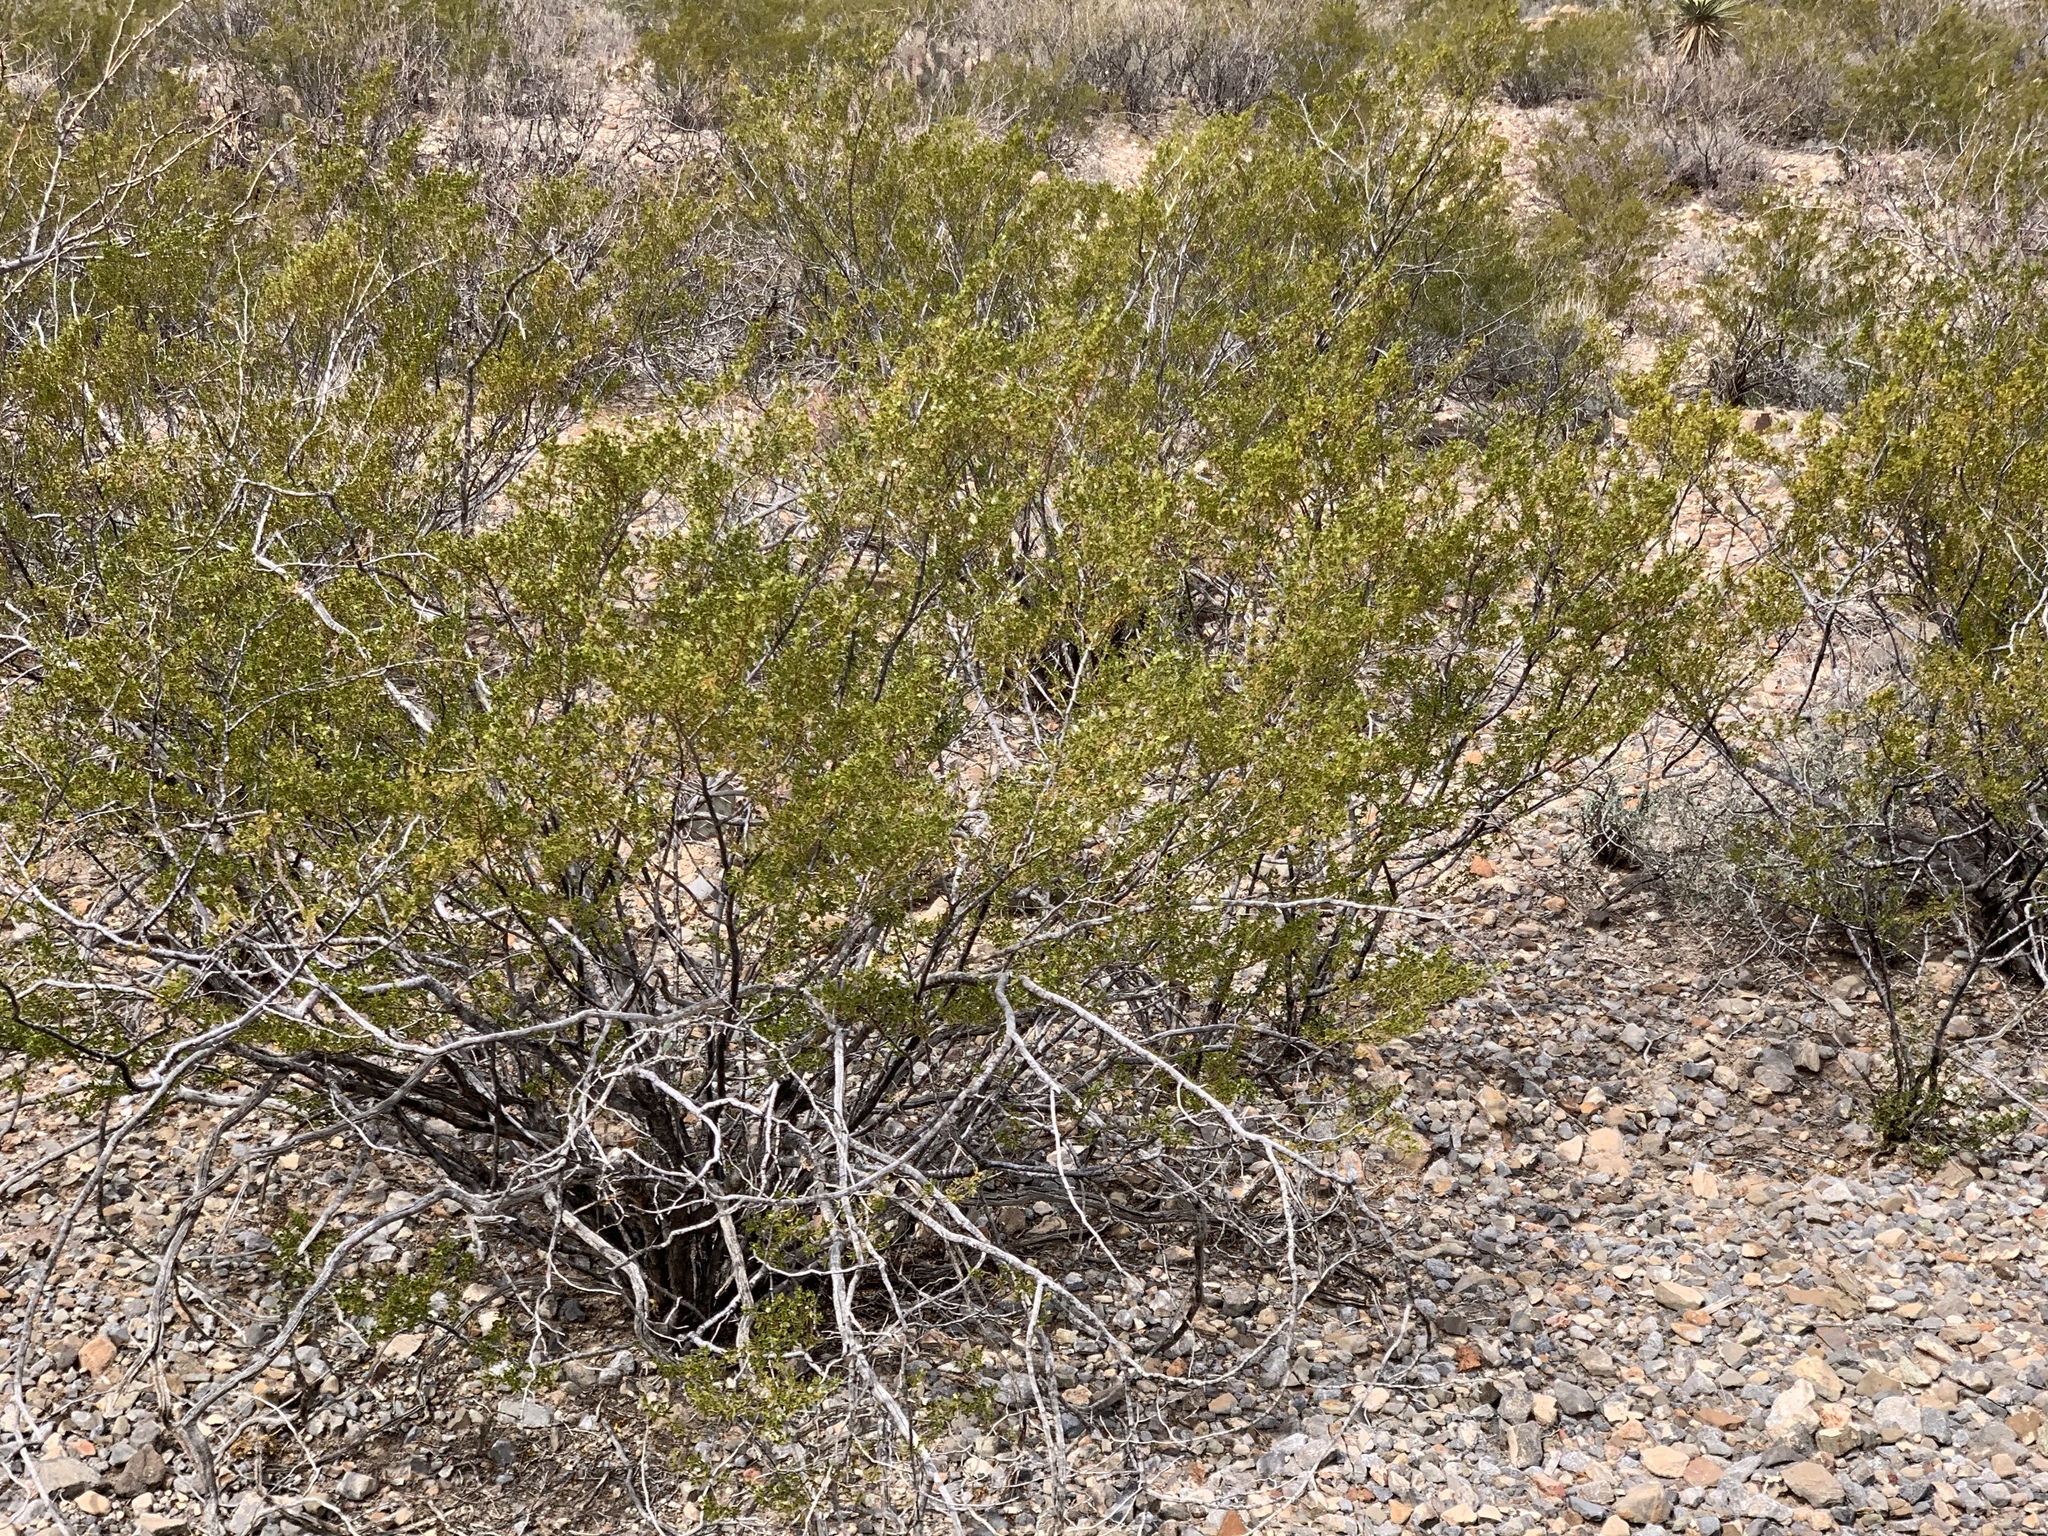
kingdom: Plantae
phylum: Tracheophyta
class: Magnoliopsida
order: Zygophyllales
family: Zygophyllaceae
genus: Larrea
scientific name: Larrea tridentata
